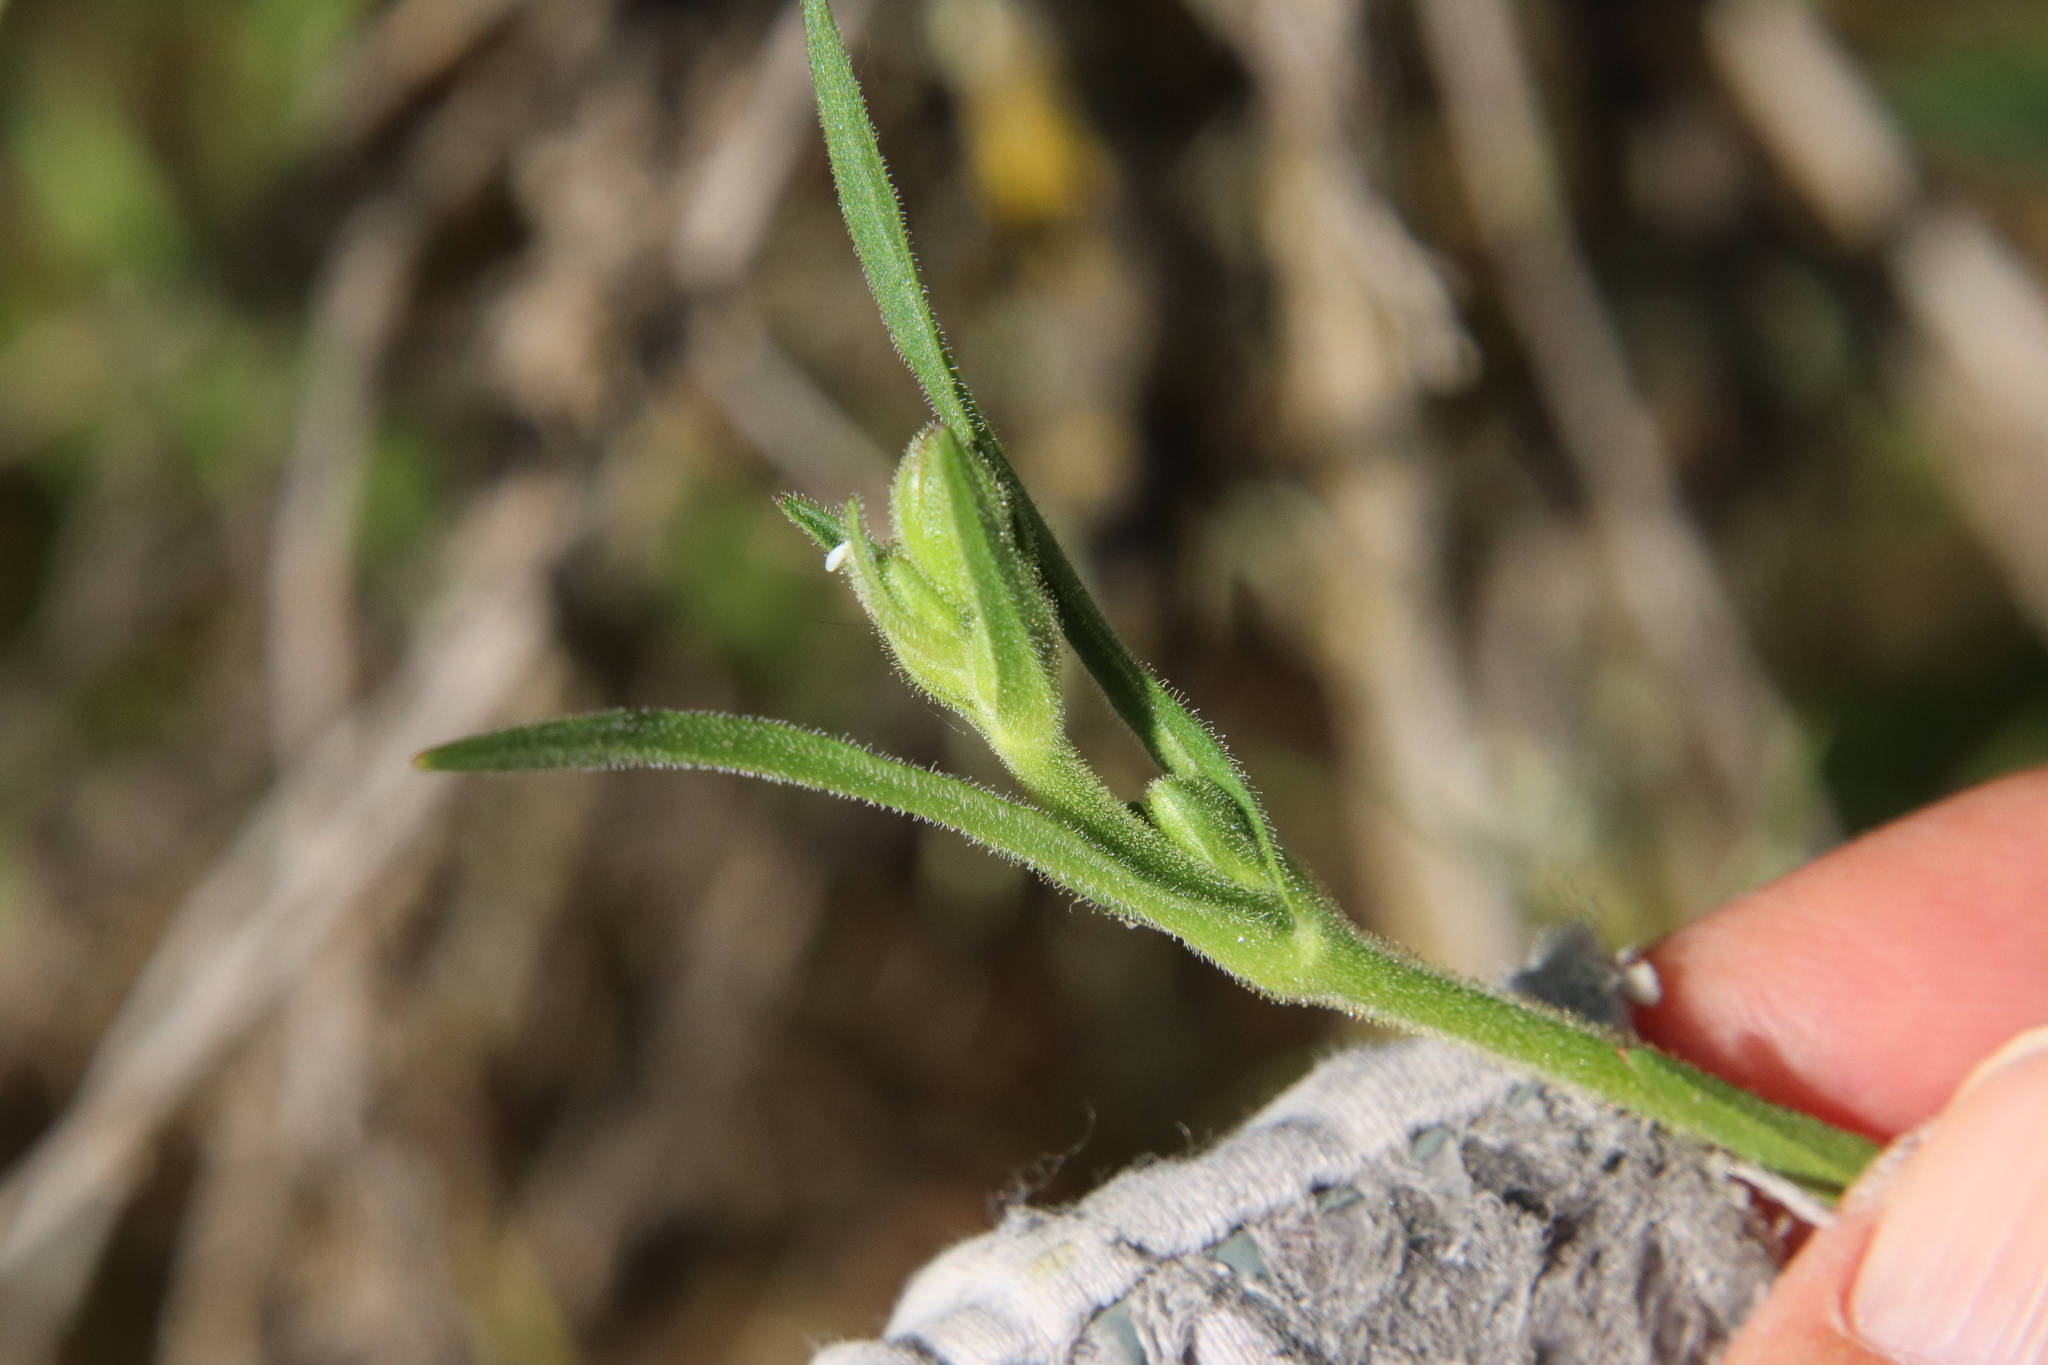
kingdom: Plantae
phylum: Tracheophyta
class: Magnoliopsida
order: Caryophyllales
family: Caryophyllaceae
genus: Silene
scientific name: Silene laciniata
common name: Indian-pink
